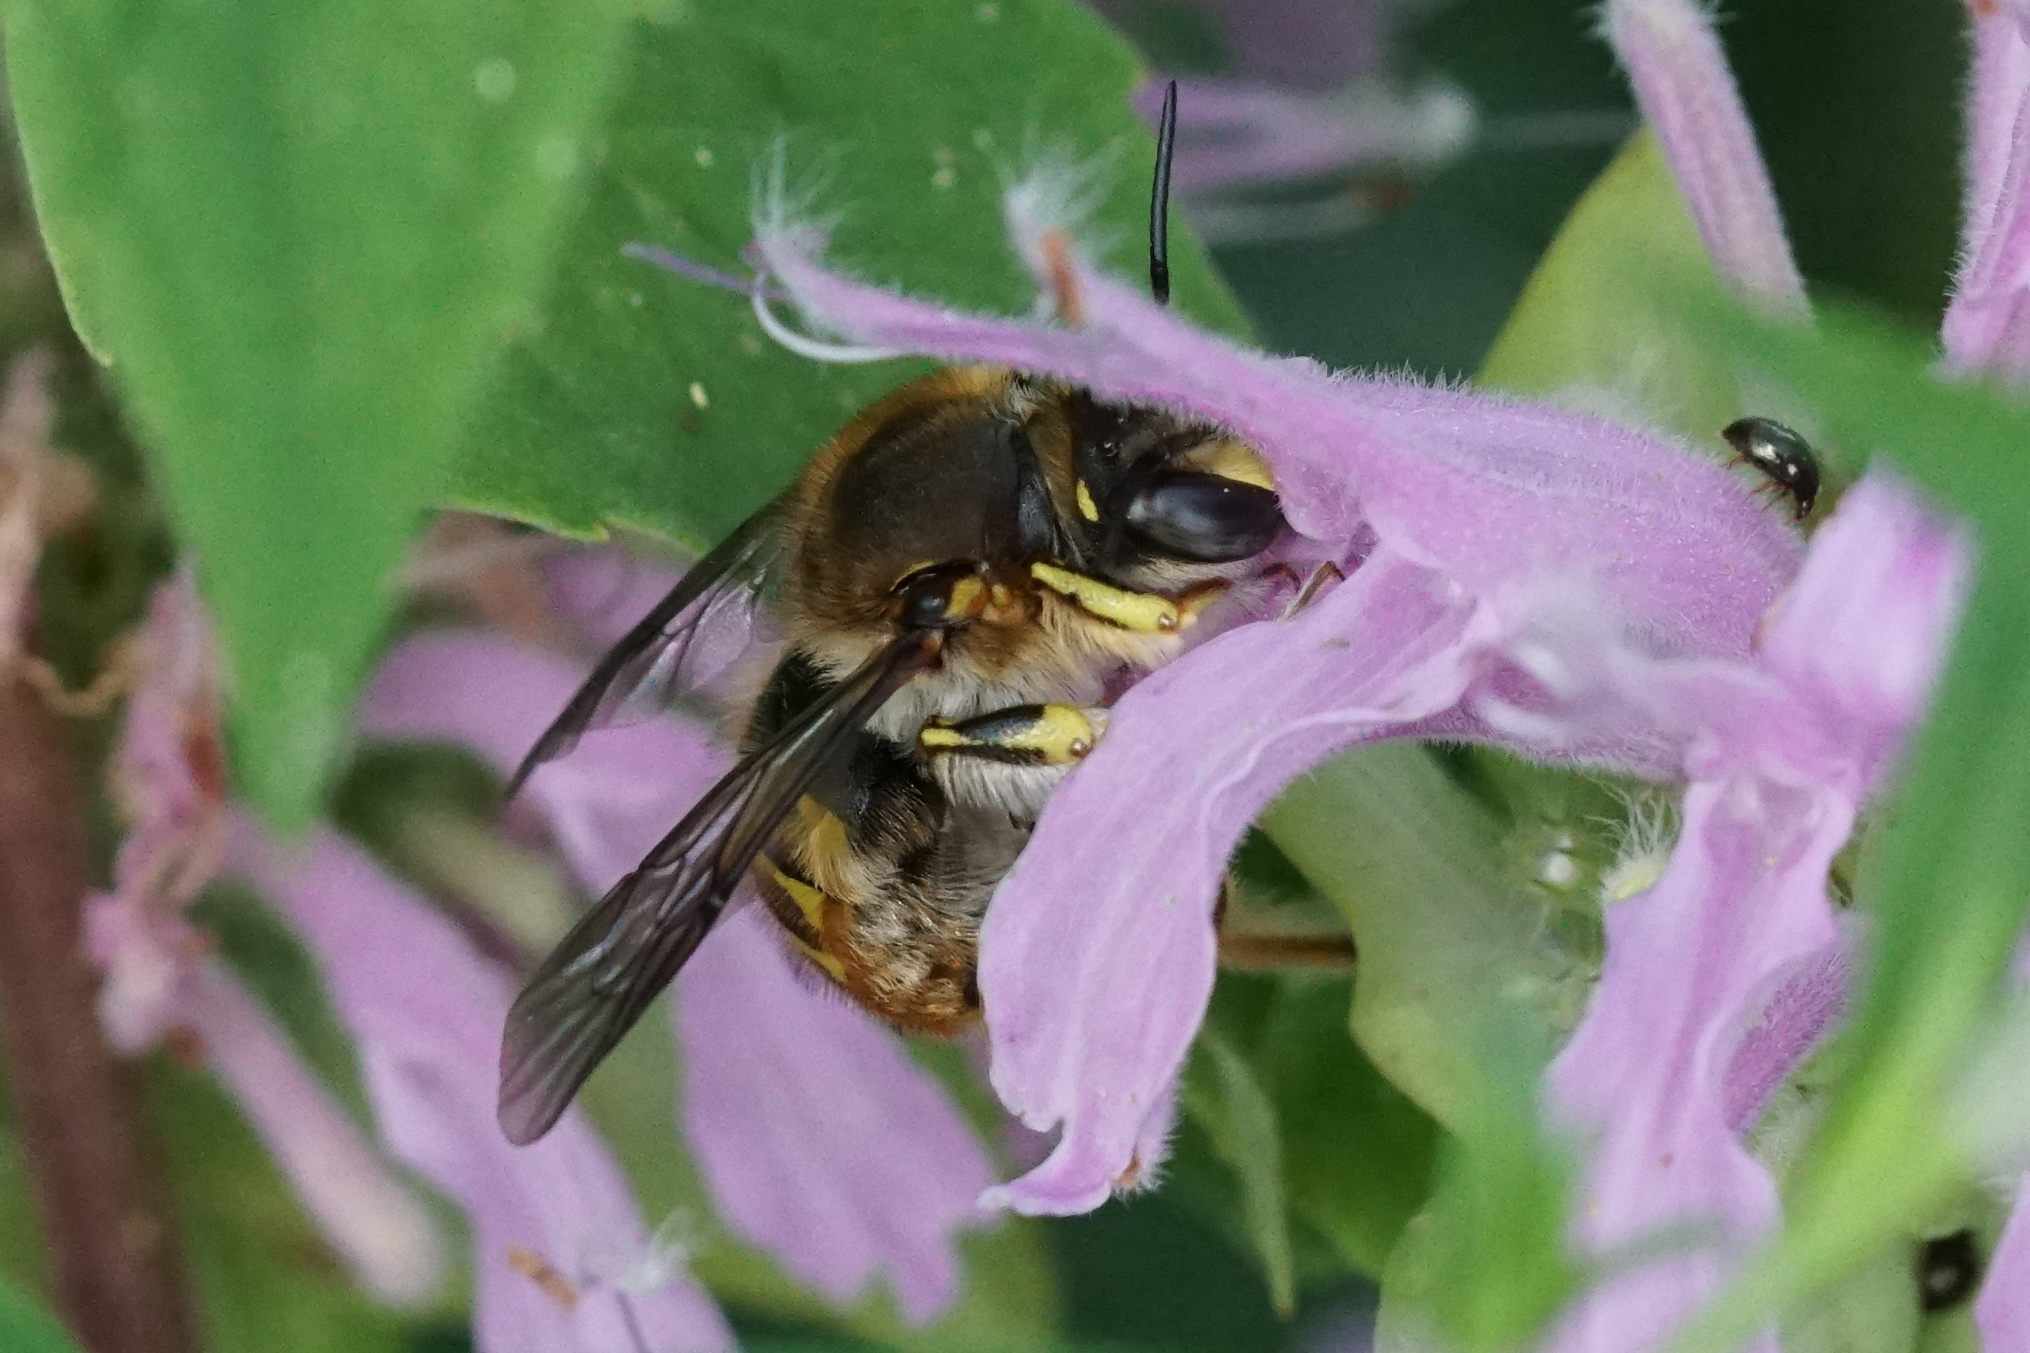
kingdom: Animalia
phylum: Arthropoda
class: Insecta
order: Hymenoptera
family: Megachilidae
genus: Anthidium
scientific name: Anthidium manicatum
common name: Wool carder bee
